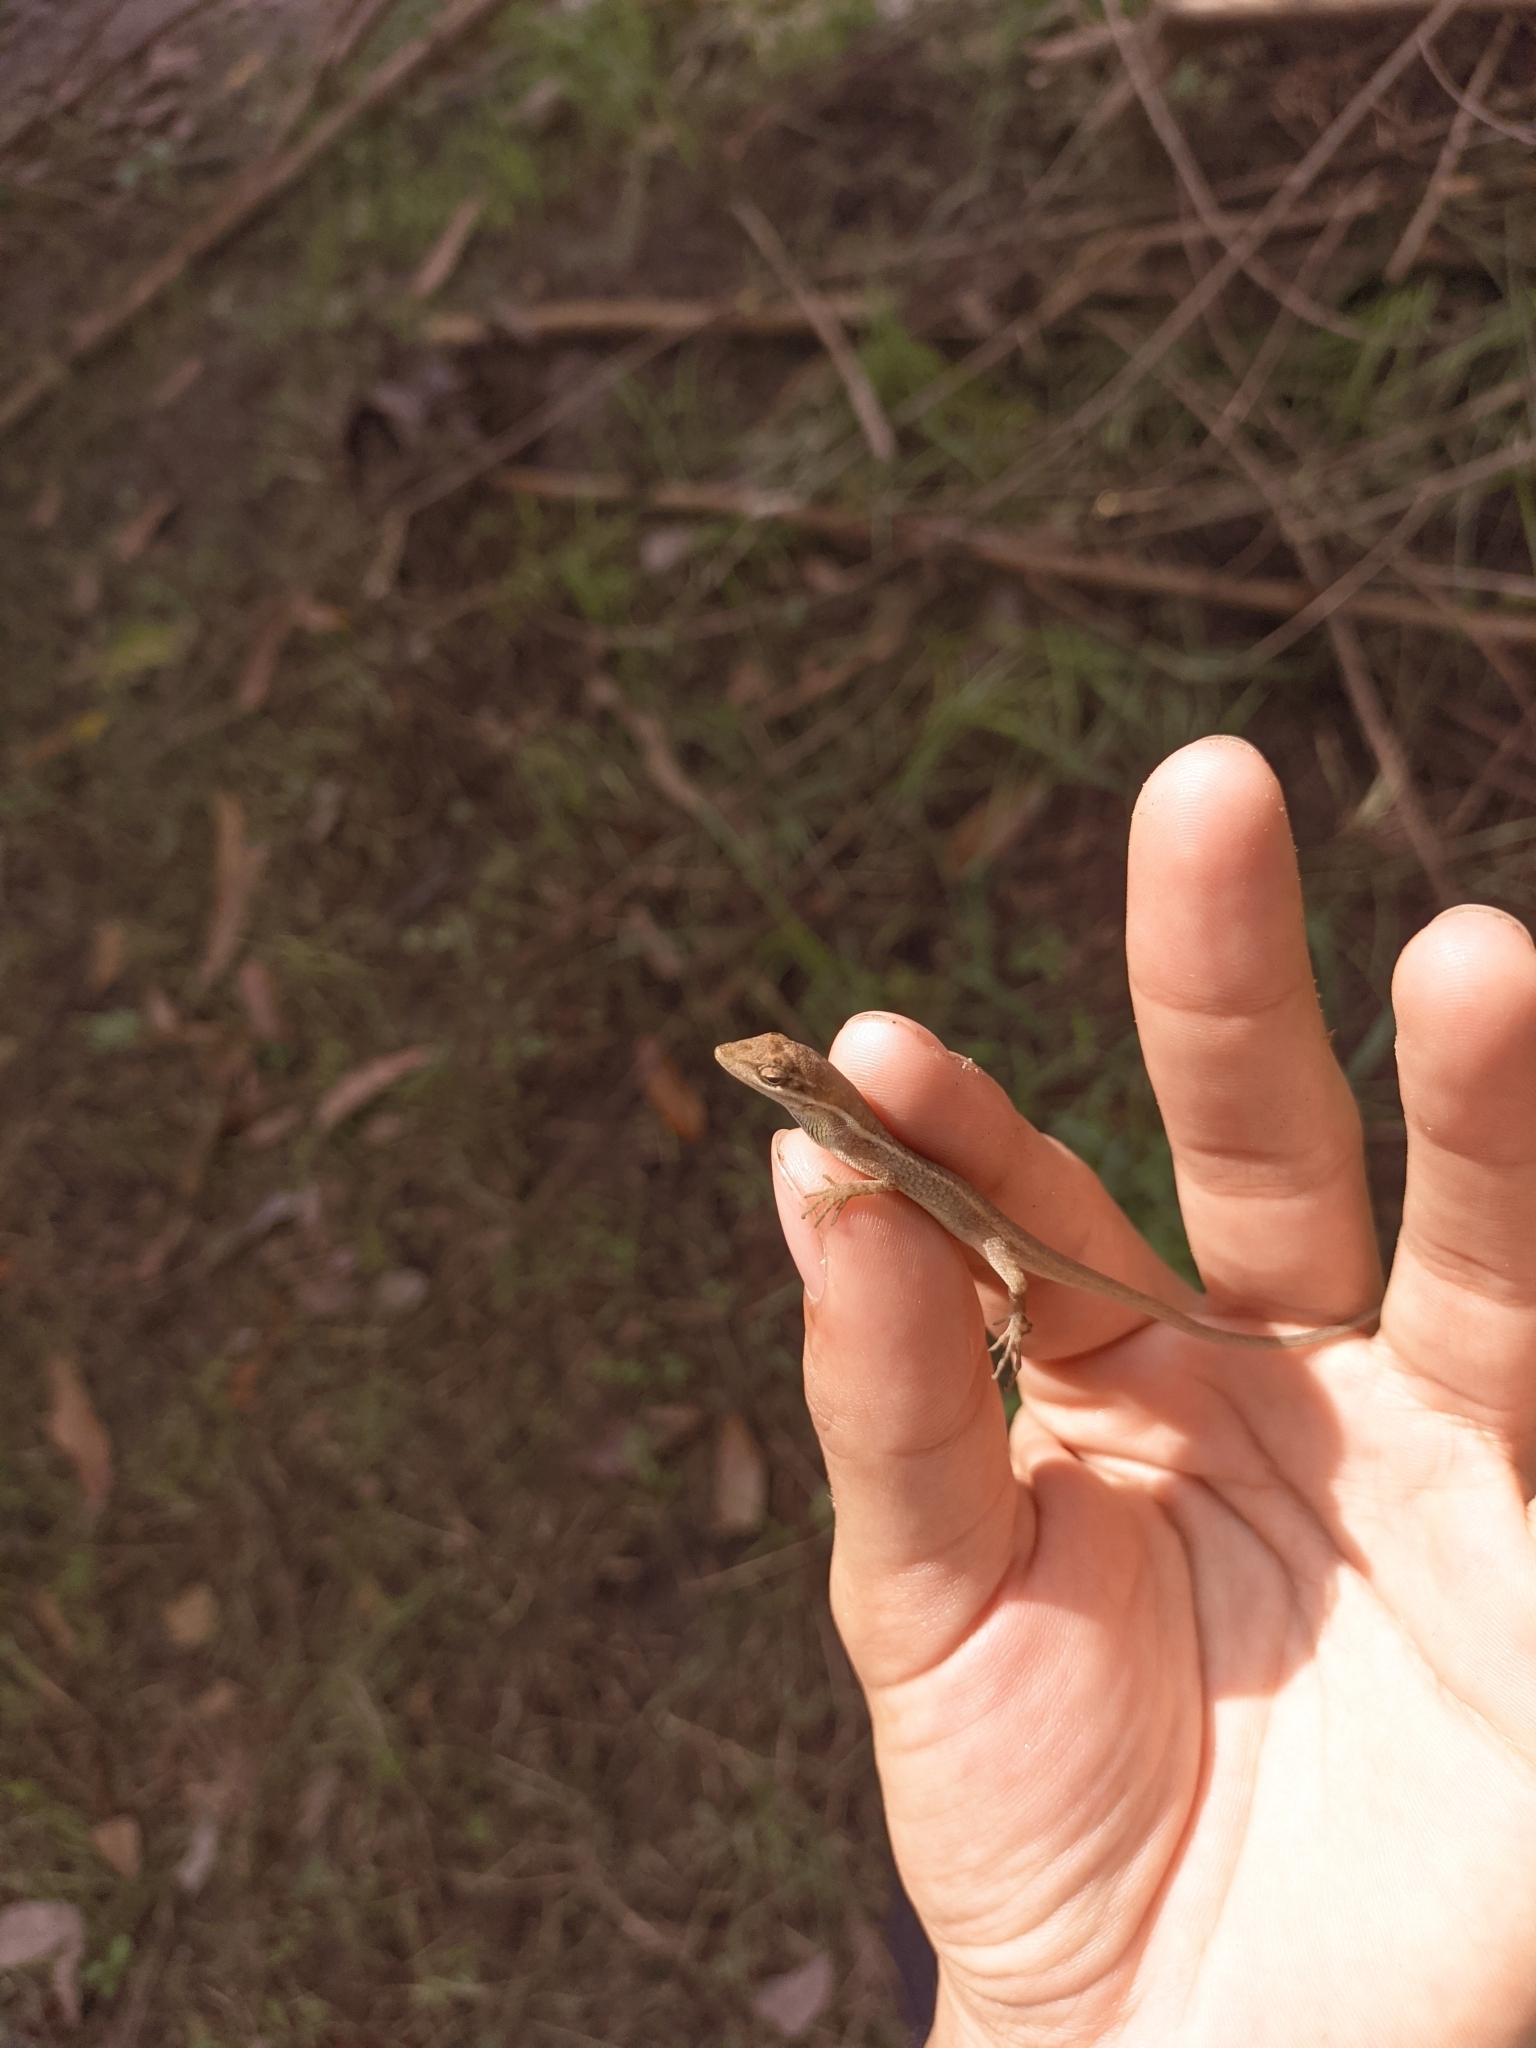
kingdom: Animalia
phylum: Chordata
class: Squamata
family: Dactyloidae
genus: Anolis
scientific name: Anolis auratus
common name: Grass anole
